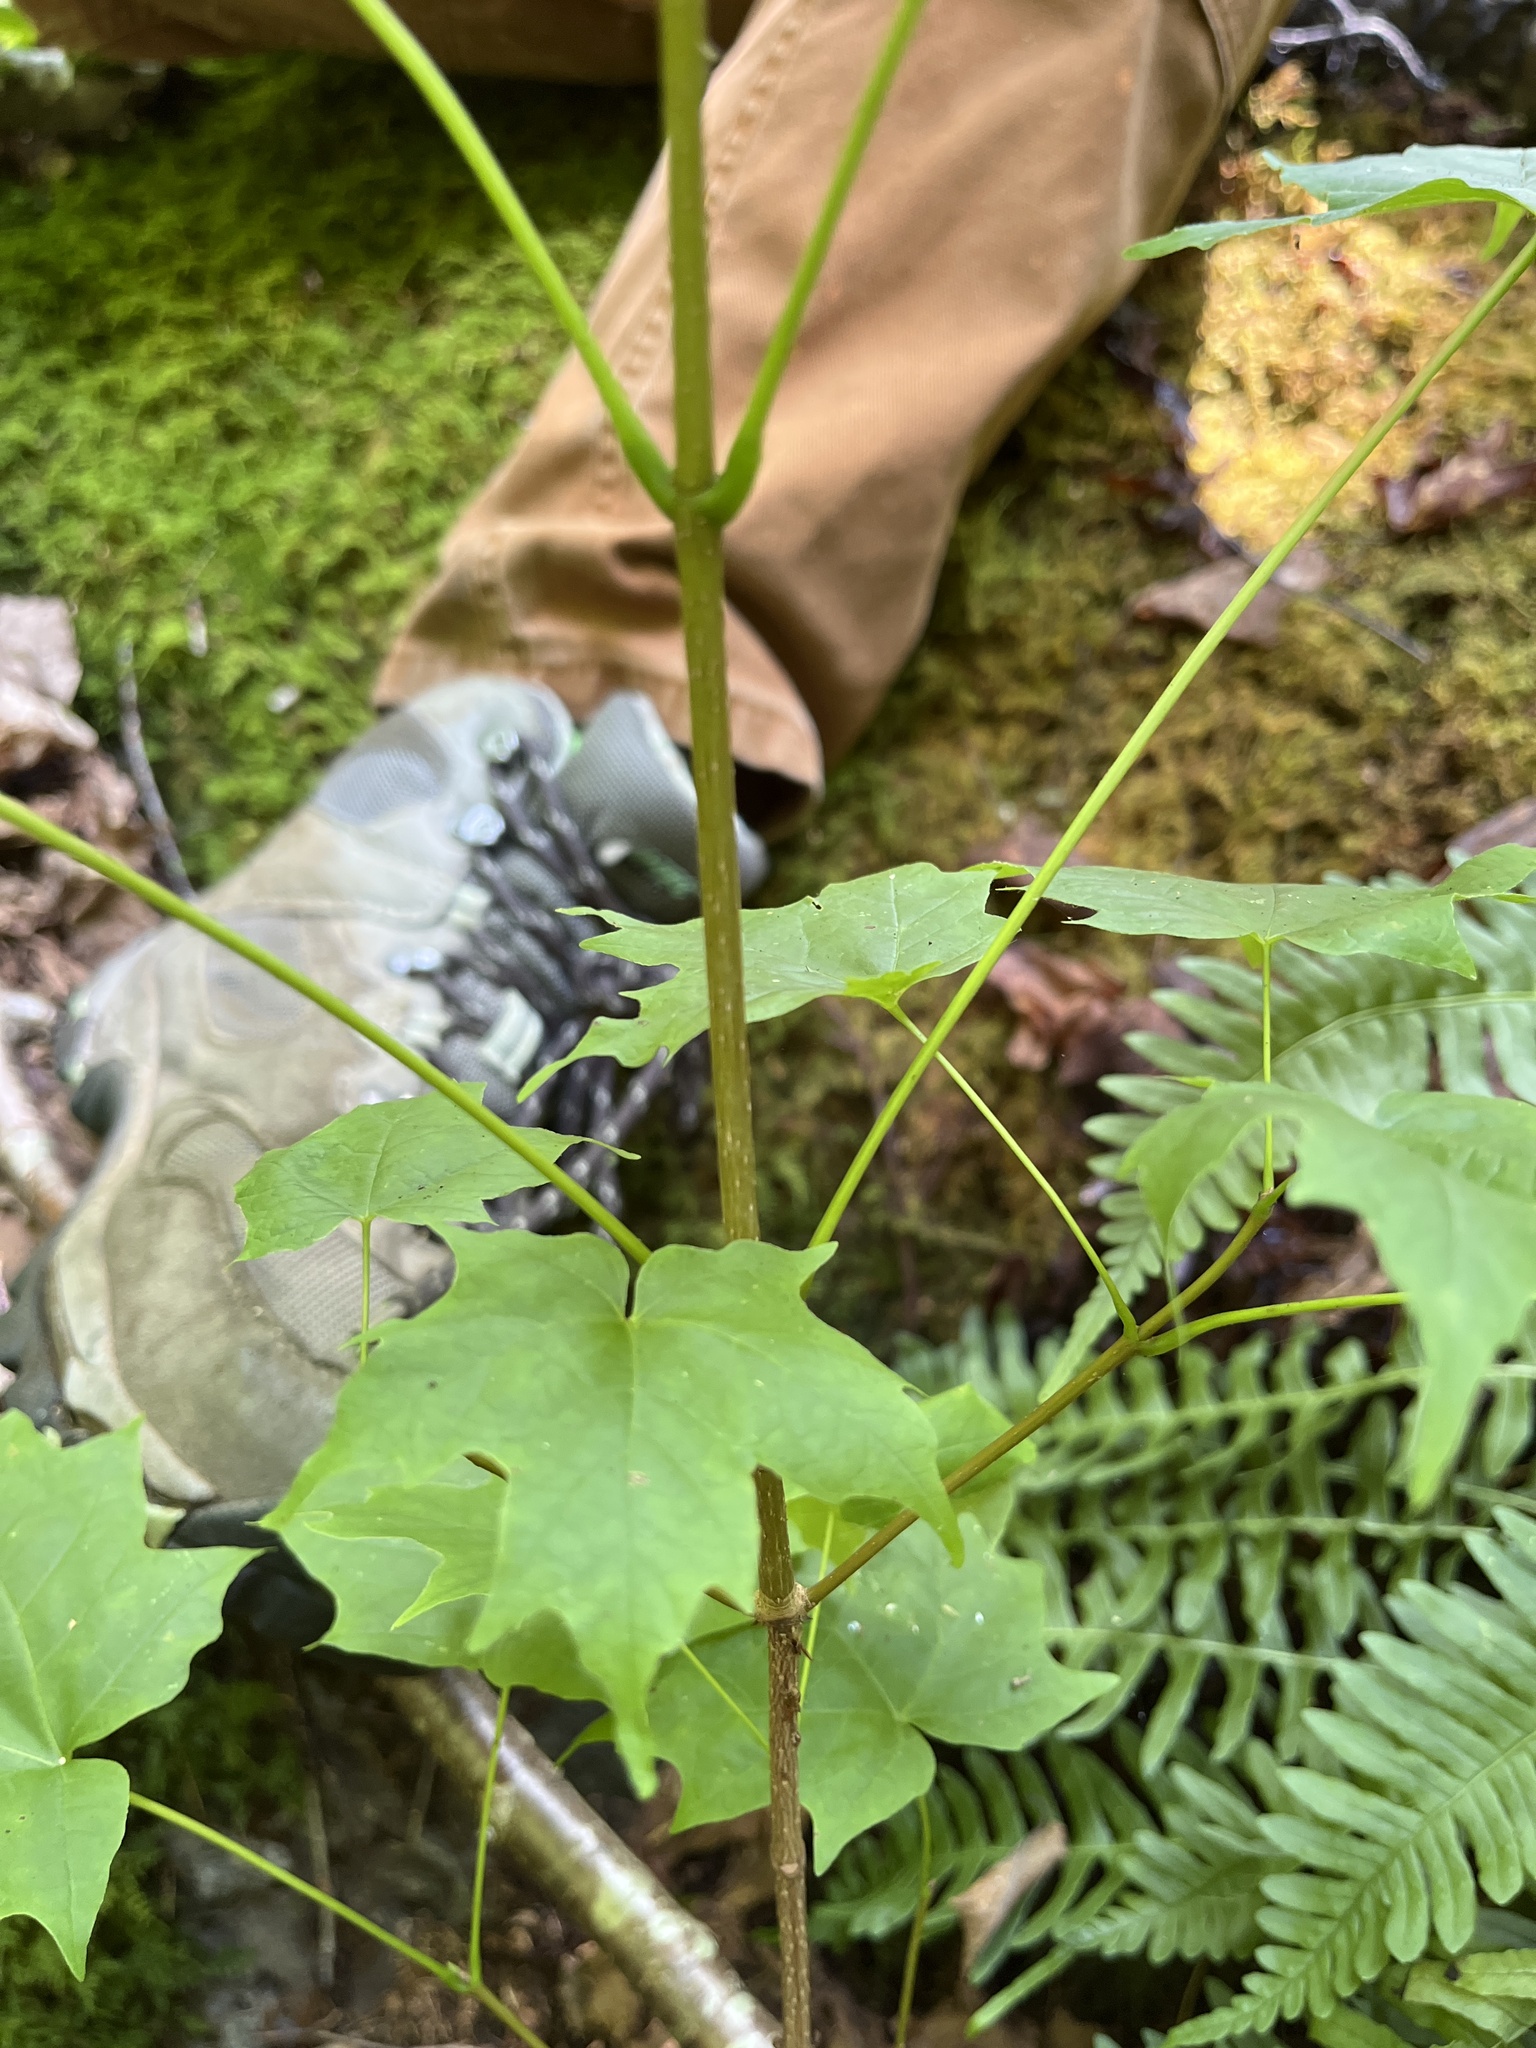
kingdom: Plantae
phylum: Tracheophyta
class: Magnoliopsida
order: Sapindales
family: Sapindaceae
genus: Acer
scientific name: Acer nigrum
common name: Black maple
